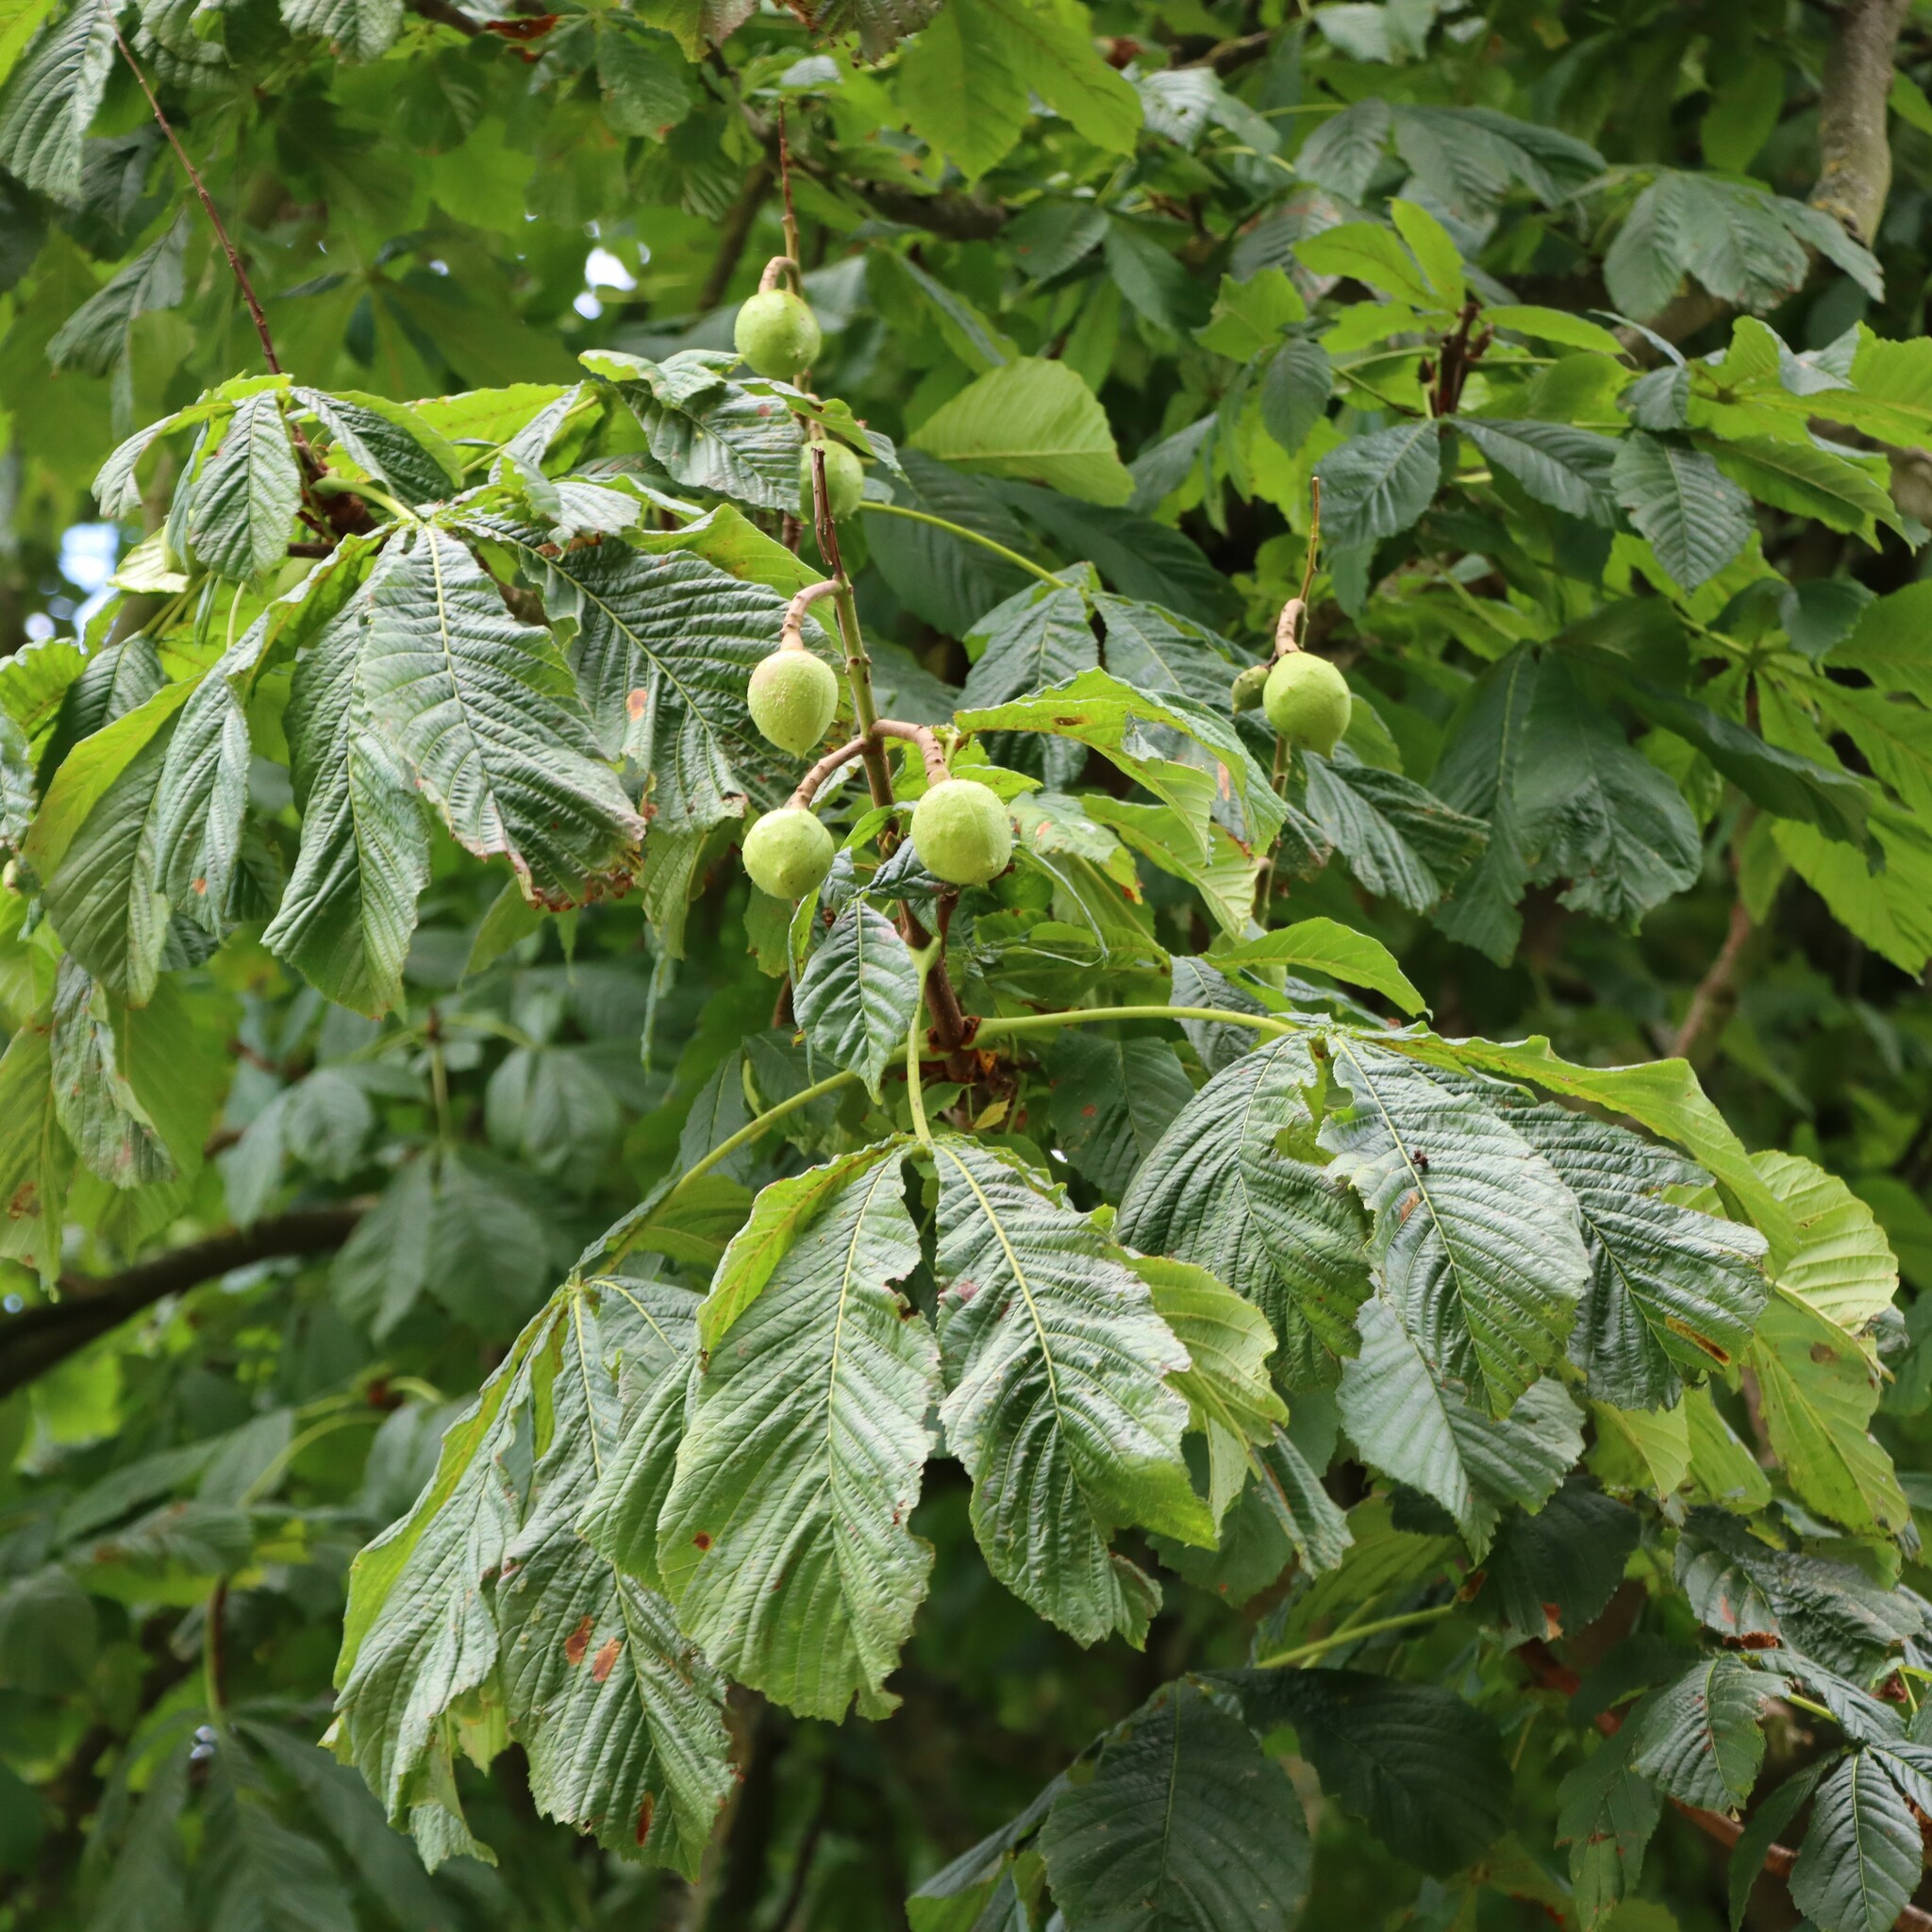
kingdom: Plantae
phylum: Tracheophyta
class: Magnoliopsida
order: Sapindales
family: Sapindaceae
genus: Aesculus
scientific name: Aesculus hippocastanum
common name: Horse-chestnut
